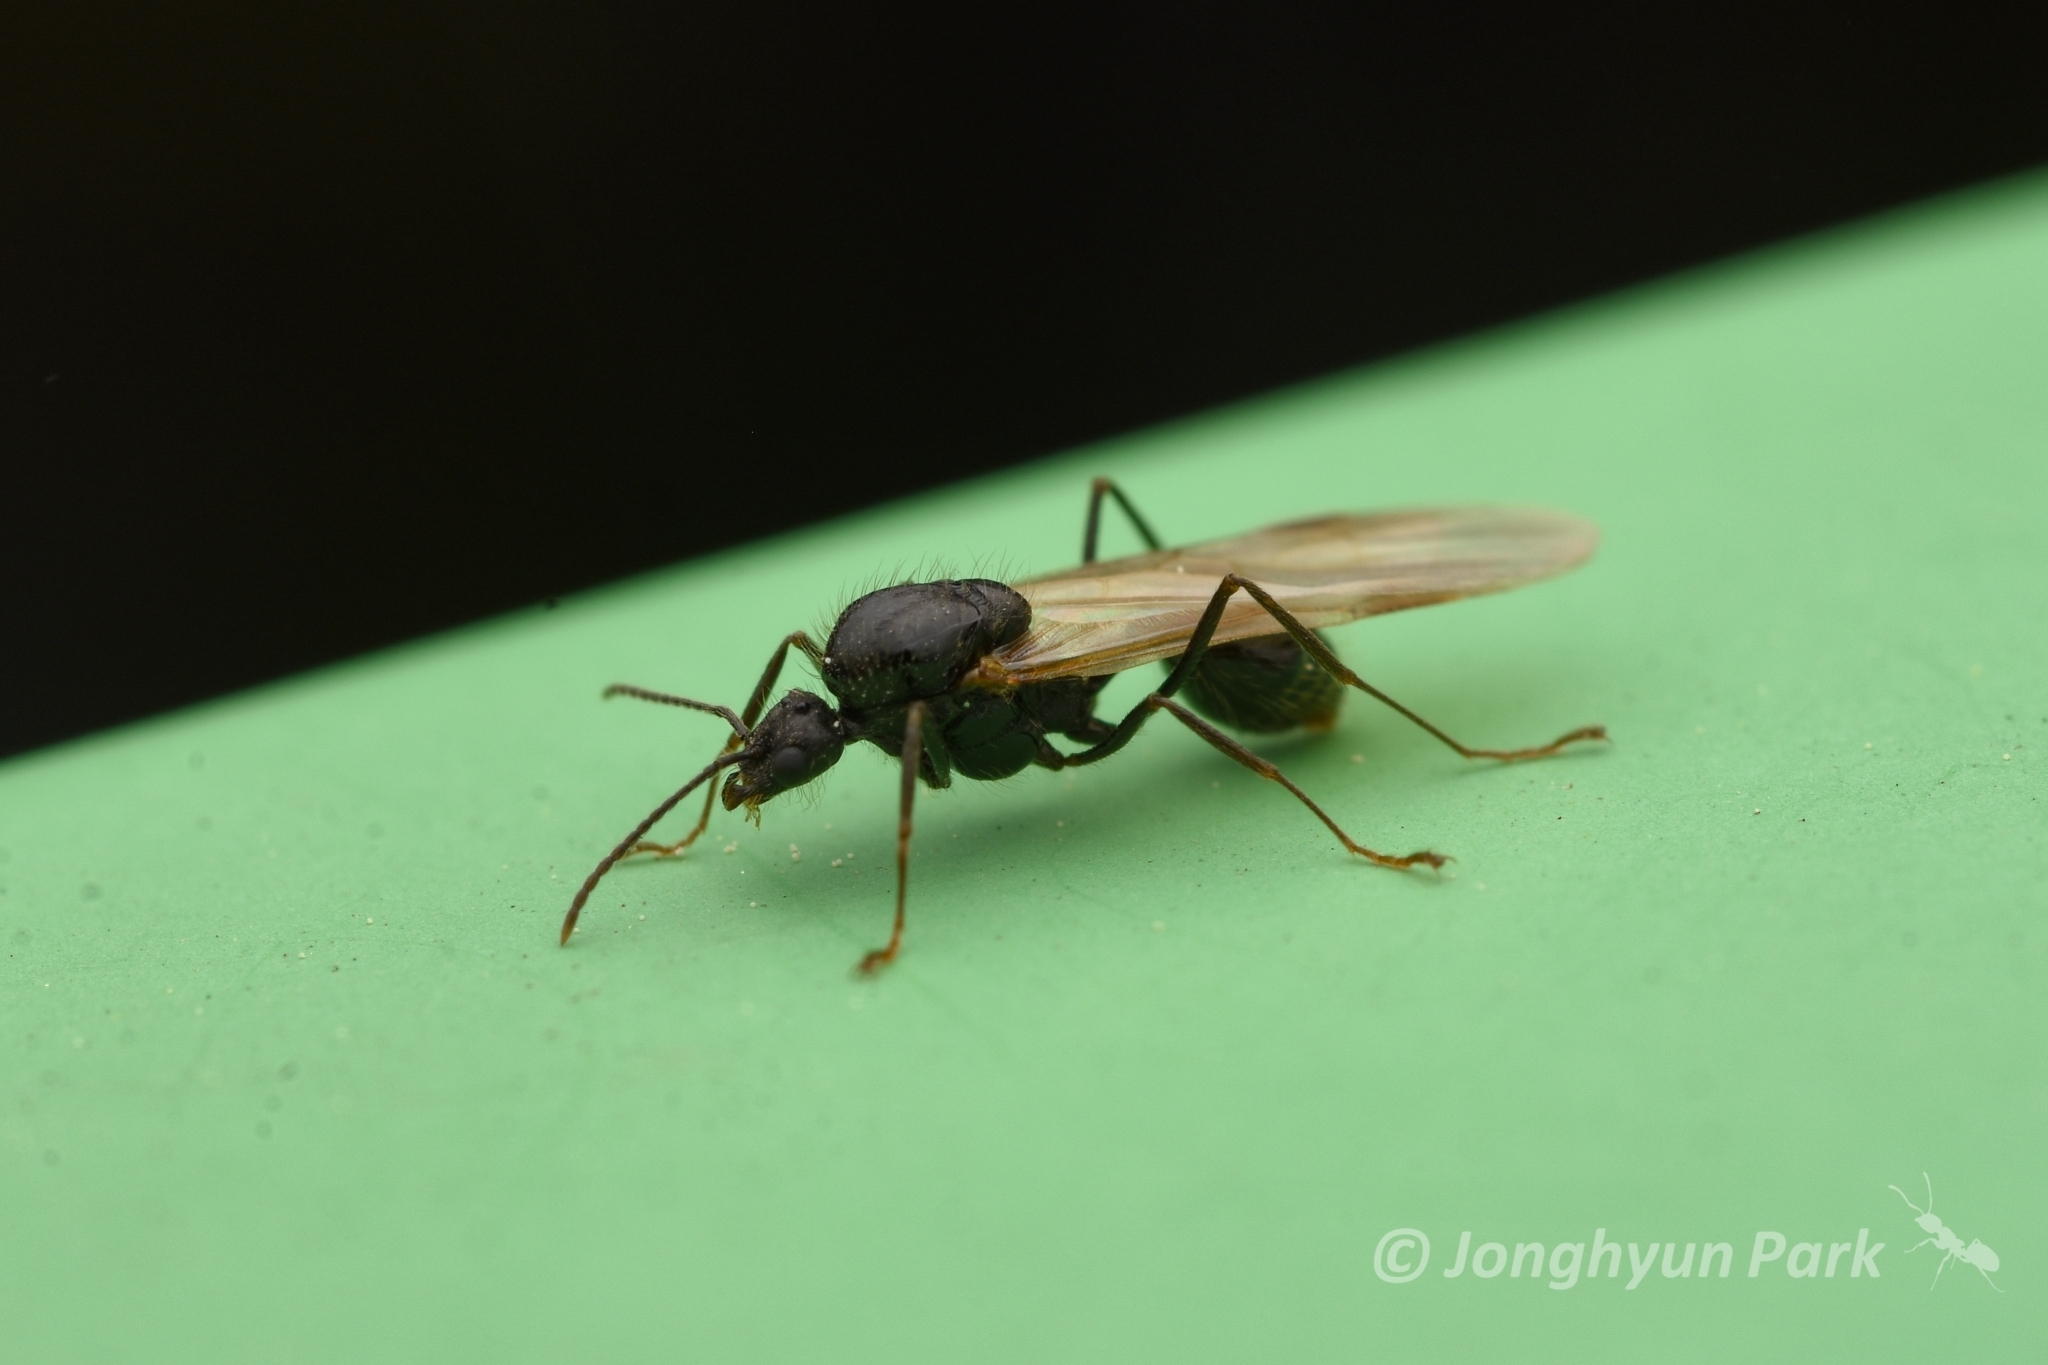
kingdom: Animalia
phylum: Arthropoda
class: Insecta
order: Hymenoptera
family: Formicidae
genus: Messor
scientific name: Messor aciculatus
